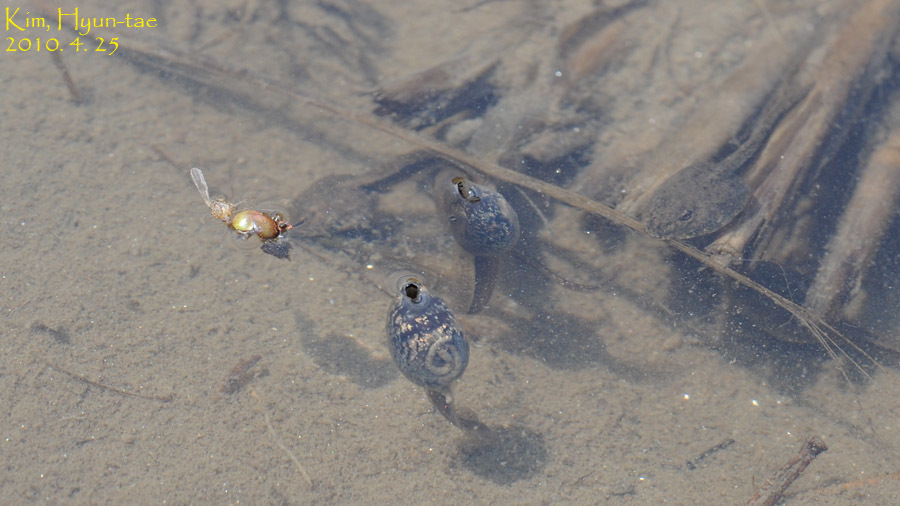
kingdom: Animalia
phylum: Chordata
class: Amphibia
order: Anura
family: Ranidae
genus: Rana
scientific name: Rana coreana
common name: Korean brown frog
